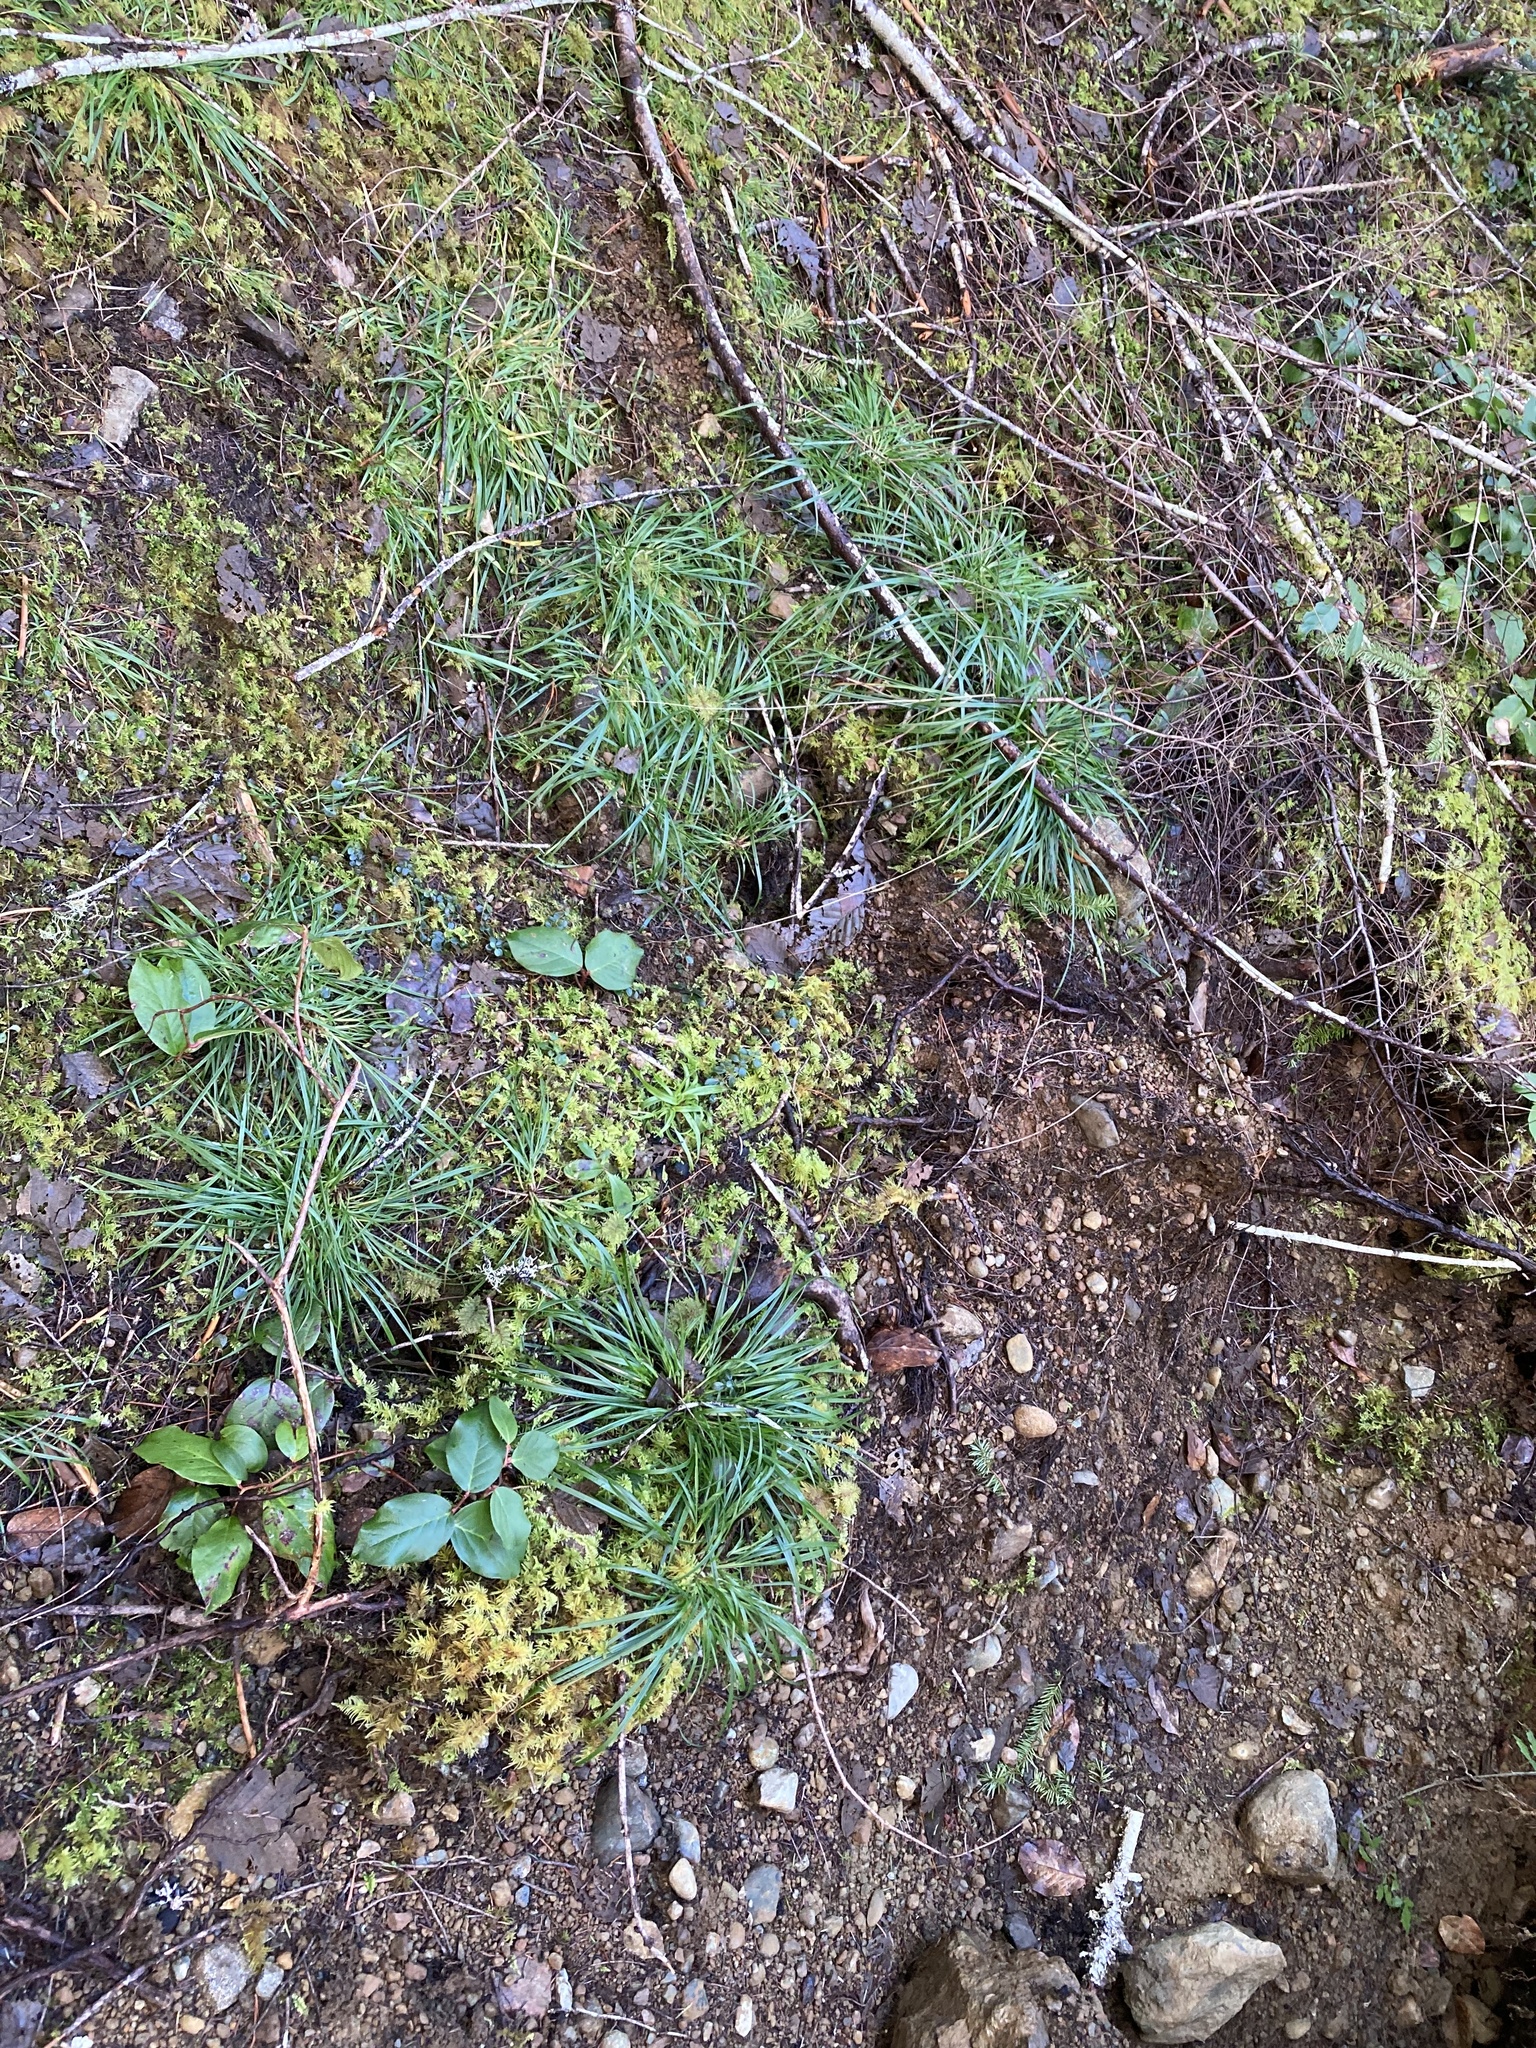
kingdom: Plantae
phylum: Tracheophyta
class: Liliopsida
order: Poales
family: Cyperaceae
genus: Carex
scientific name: Carex hendersonii
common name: Henderson's sedge
